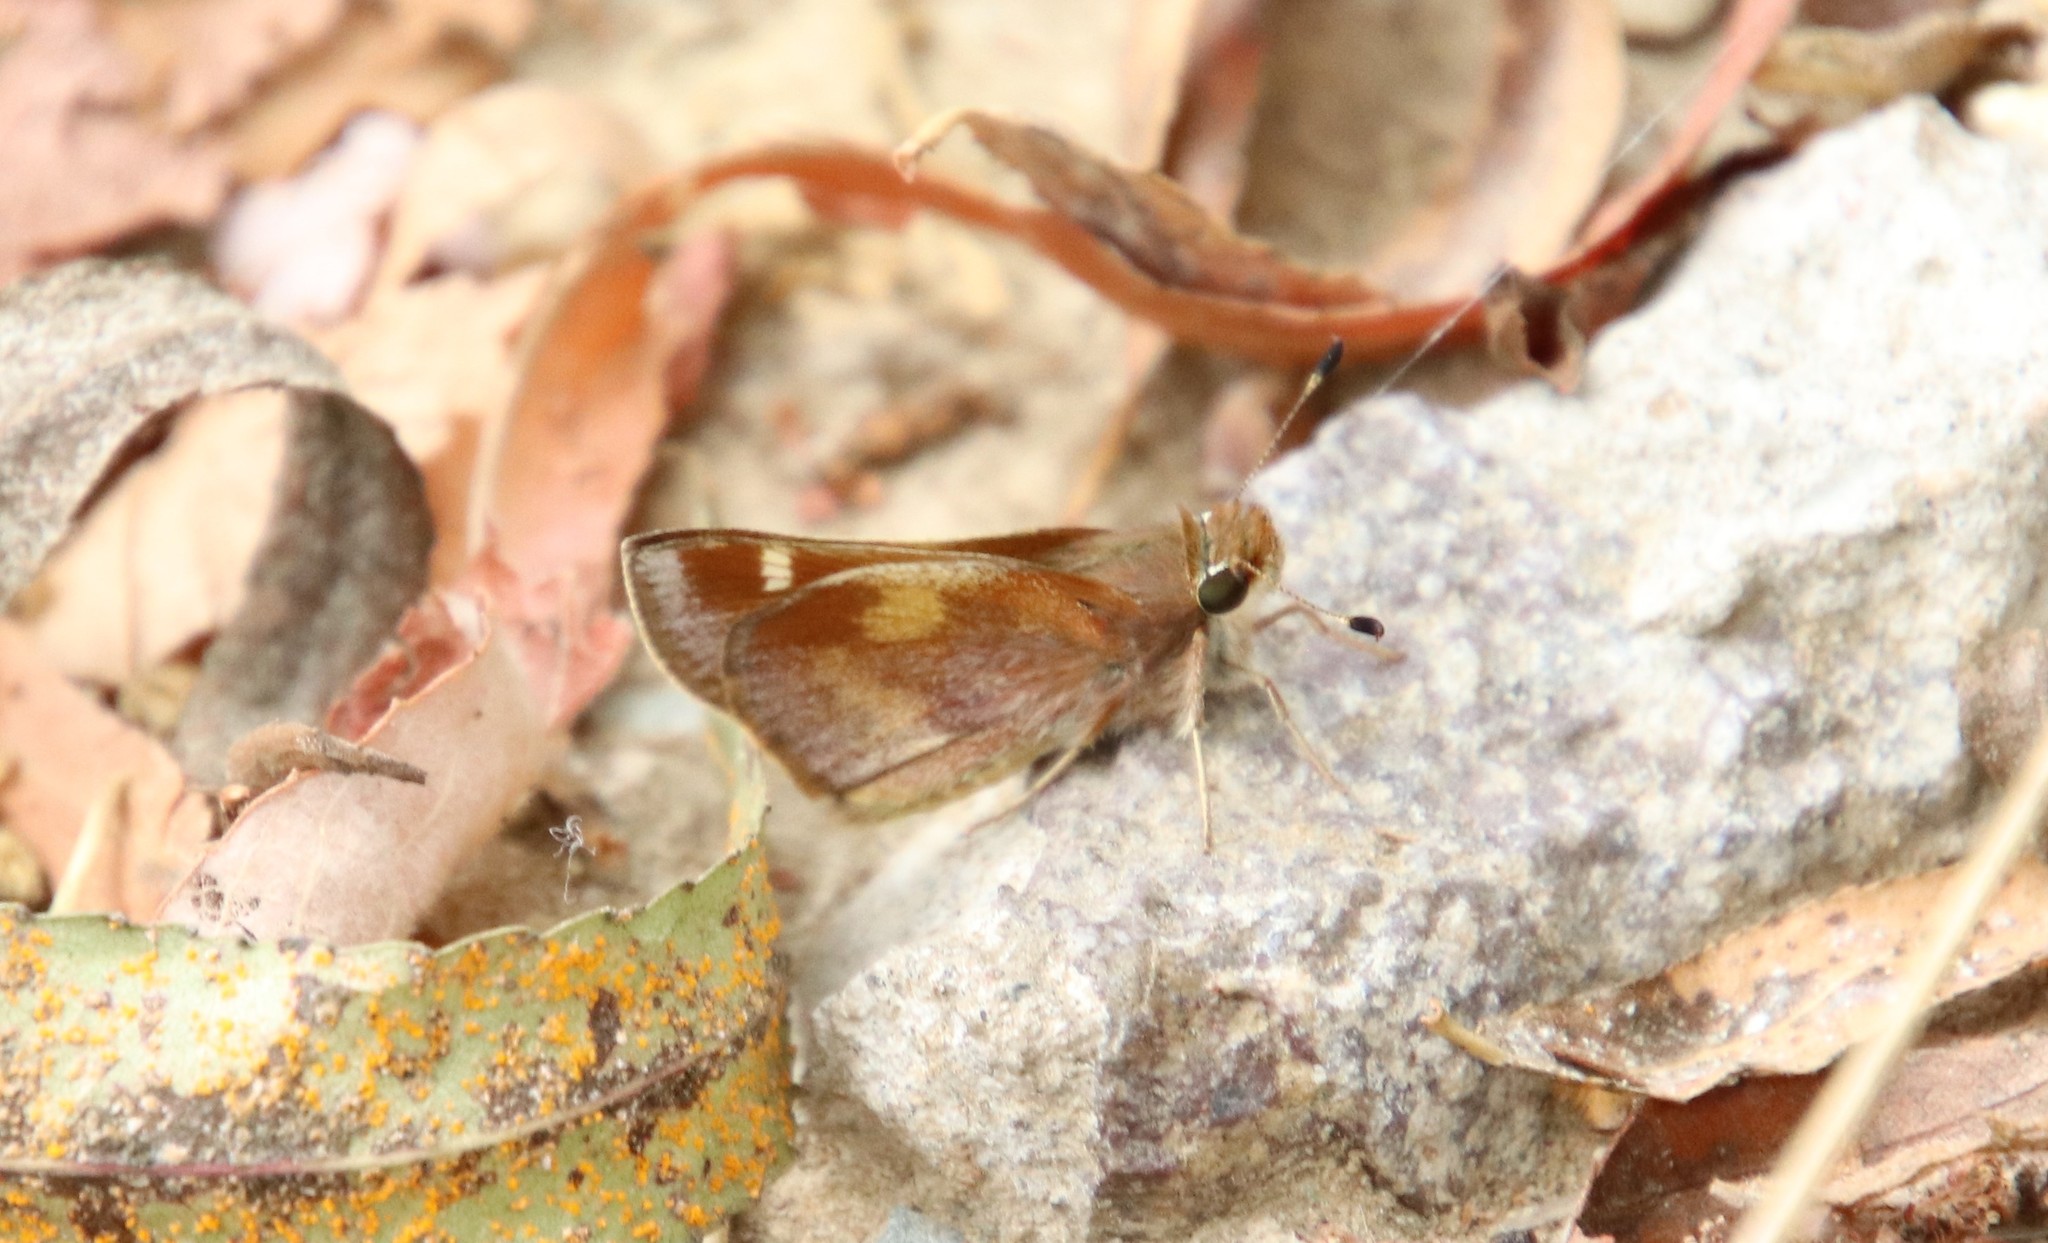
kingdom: Animalia
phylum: Arthropoda
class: Insecta
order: Lepidoptera
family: Hesperiidae
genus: Lon
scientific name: Lon melane
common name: Umber skipper
